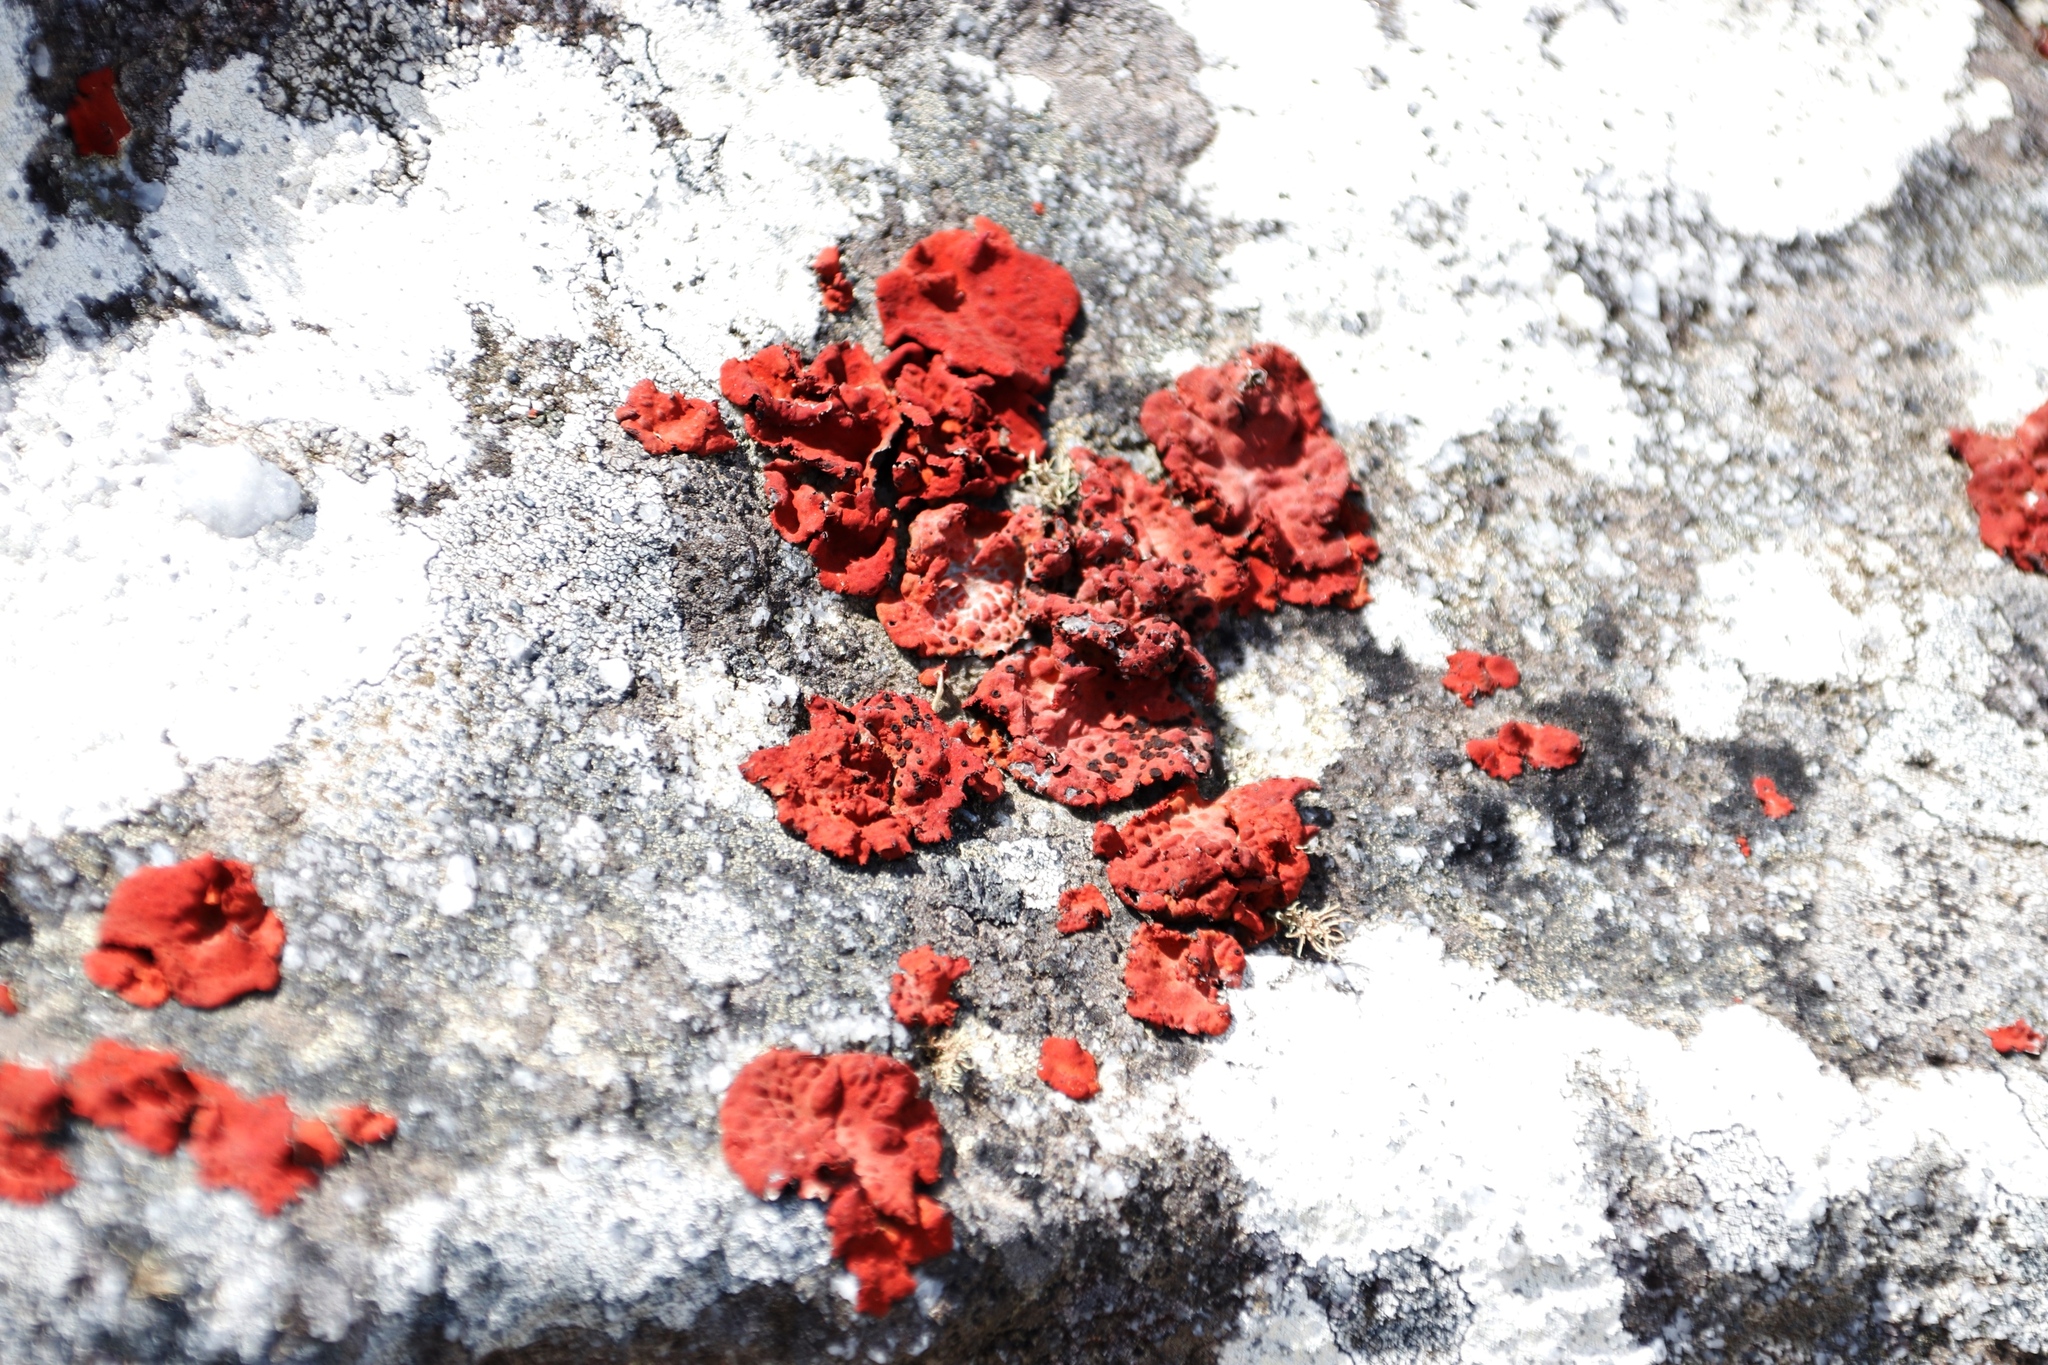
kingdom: Fungi
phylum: Ascomycota
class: Lecanoromycetes
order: Umbilicariales
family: Umbilicariaceae
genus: Lasallia
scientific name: Lasallia rubiginosa
